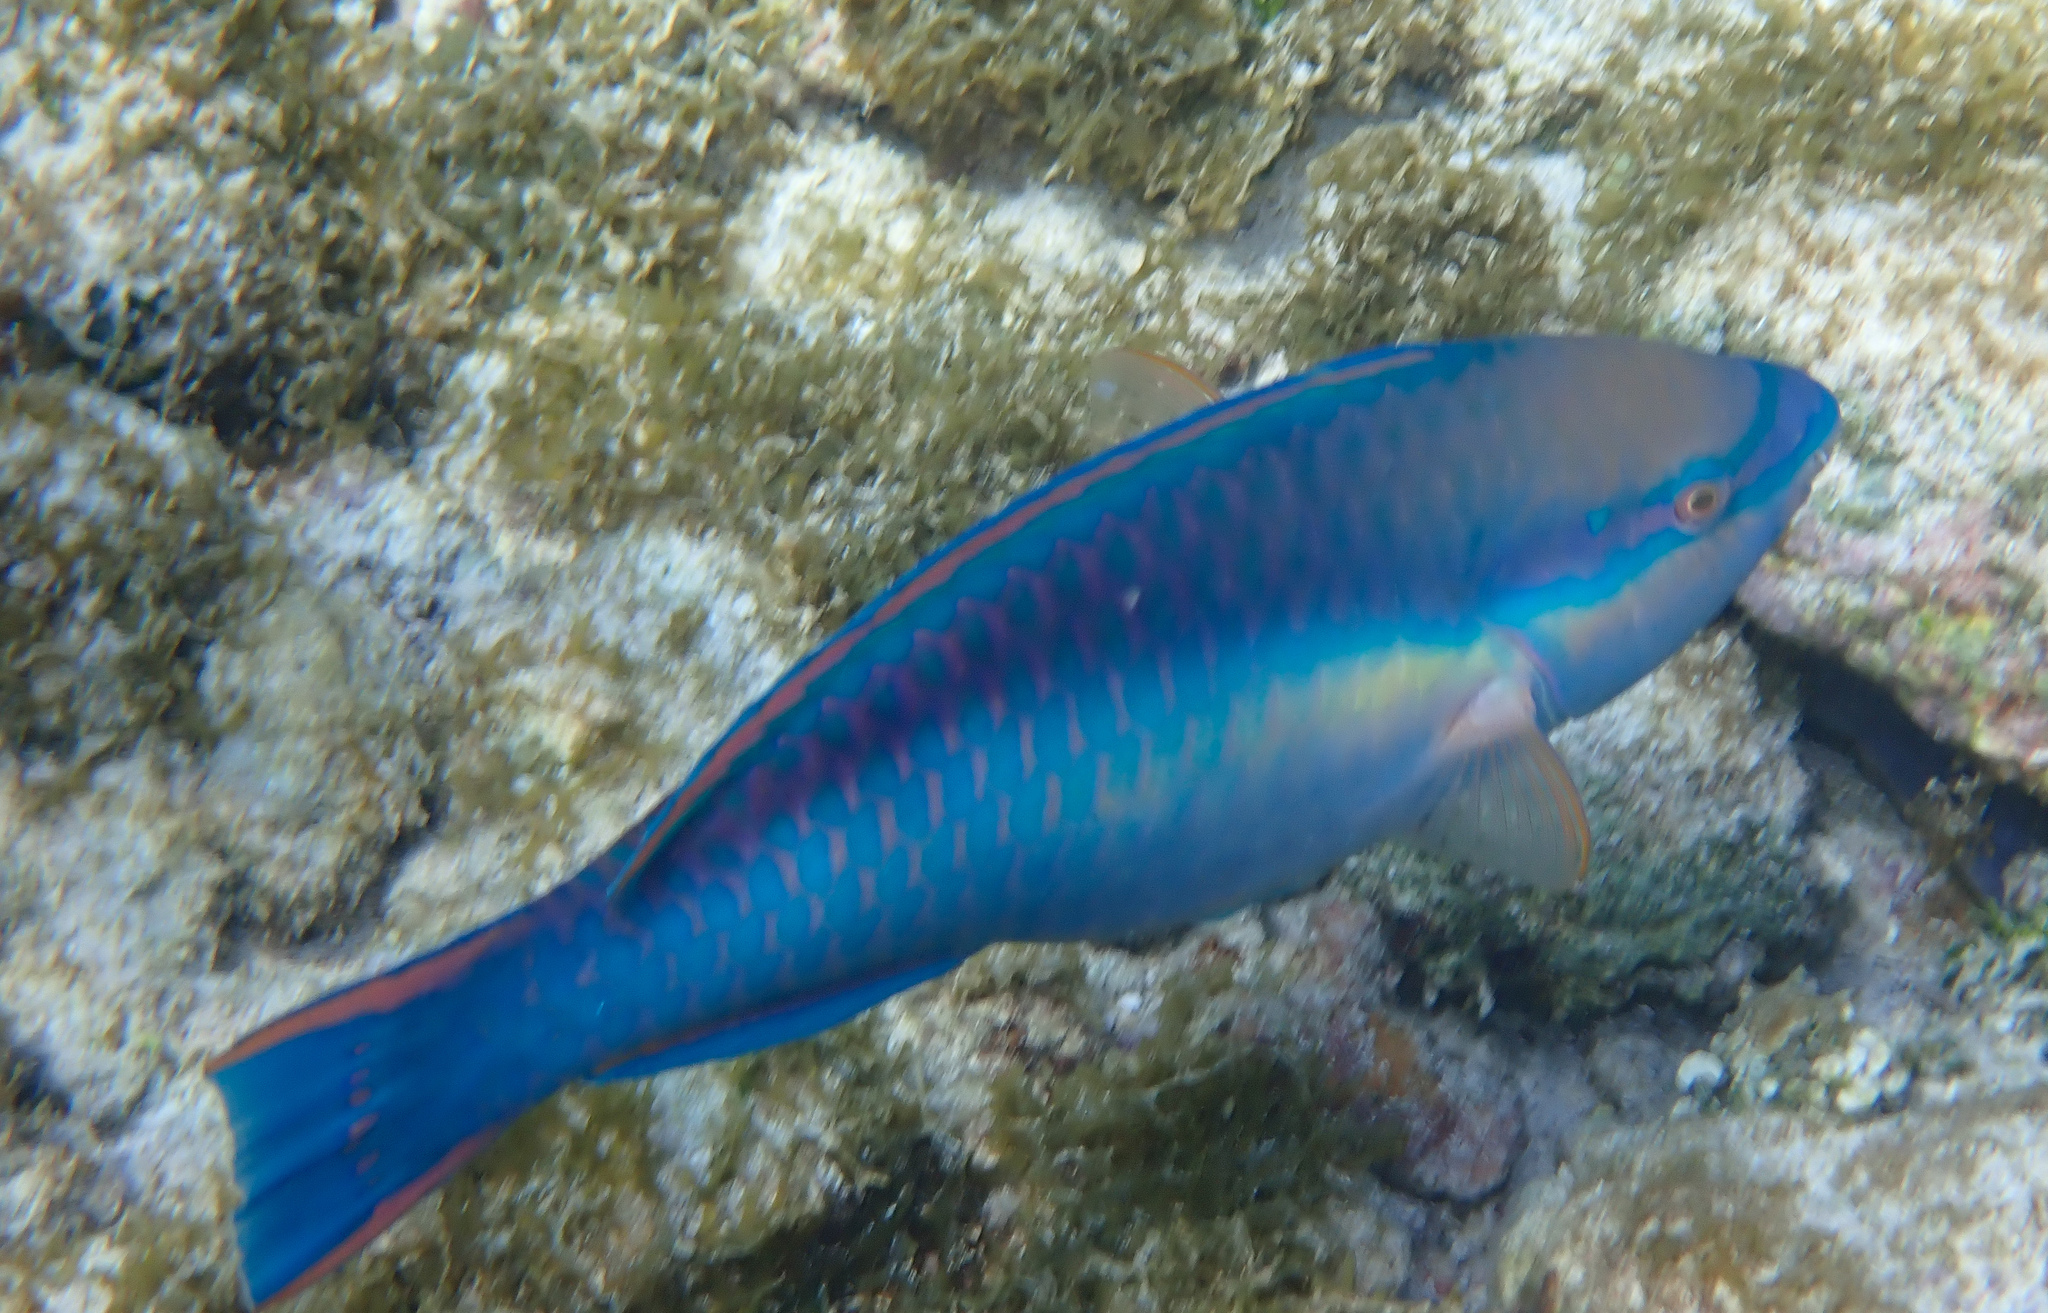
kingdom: Animalia
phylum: Chordata
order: Perciformes
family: Scaridae
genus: Scarus
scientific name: Scarus taeniopterus
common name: Princess parrotfish
